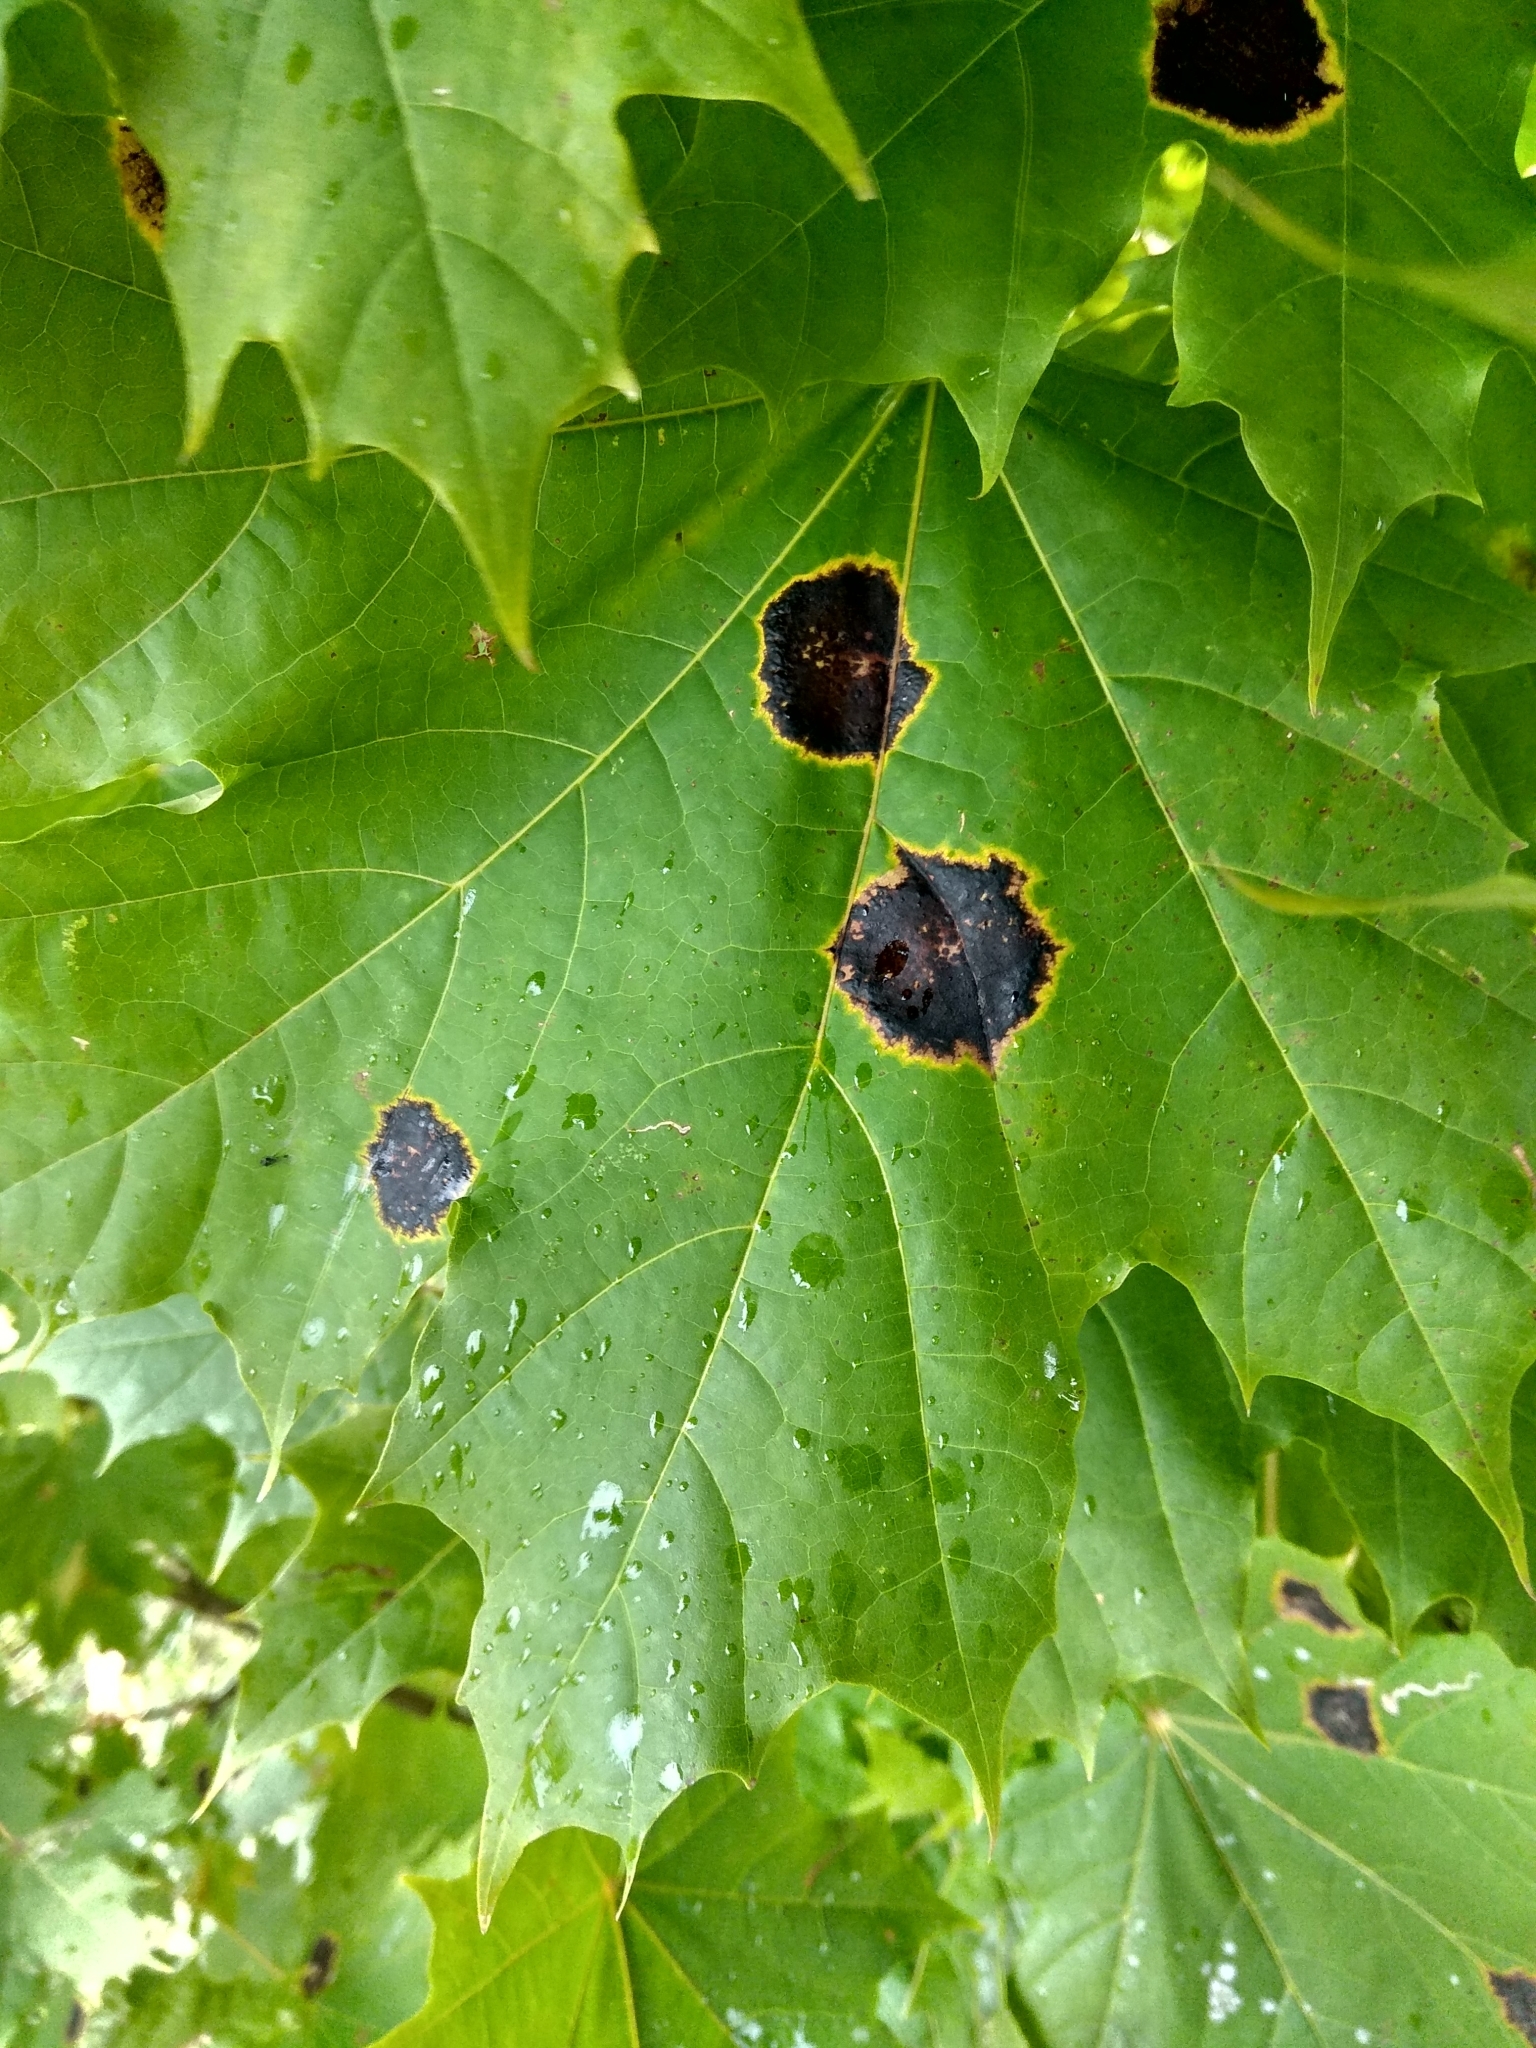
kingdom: Fungi
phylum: Ascomycota
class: Leotiomycetes
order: Rhytismatales
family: Rhytismataceae
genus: Rhytisma
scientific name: Rhytisma acerinum
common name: European tar spot
